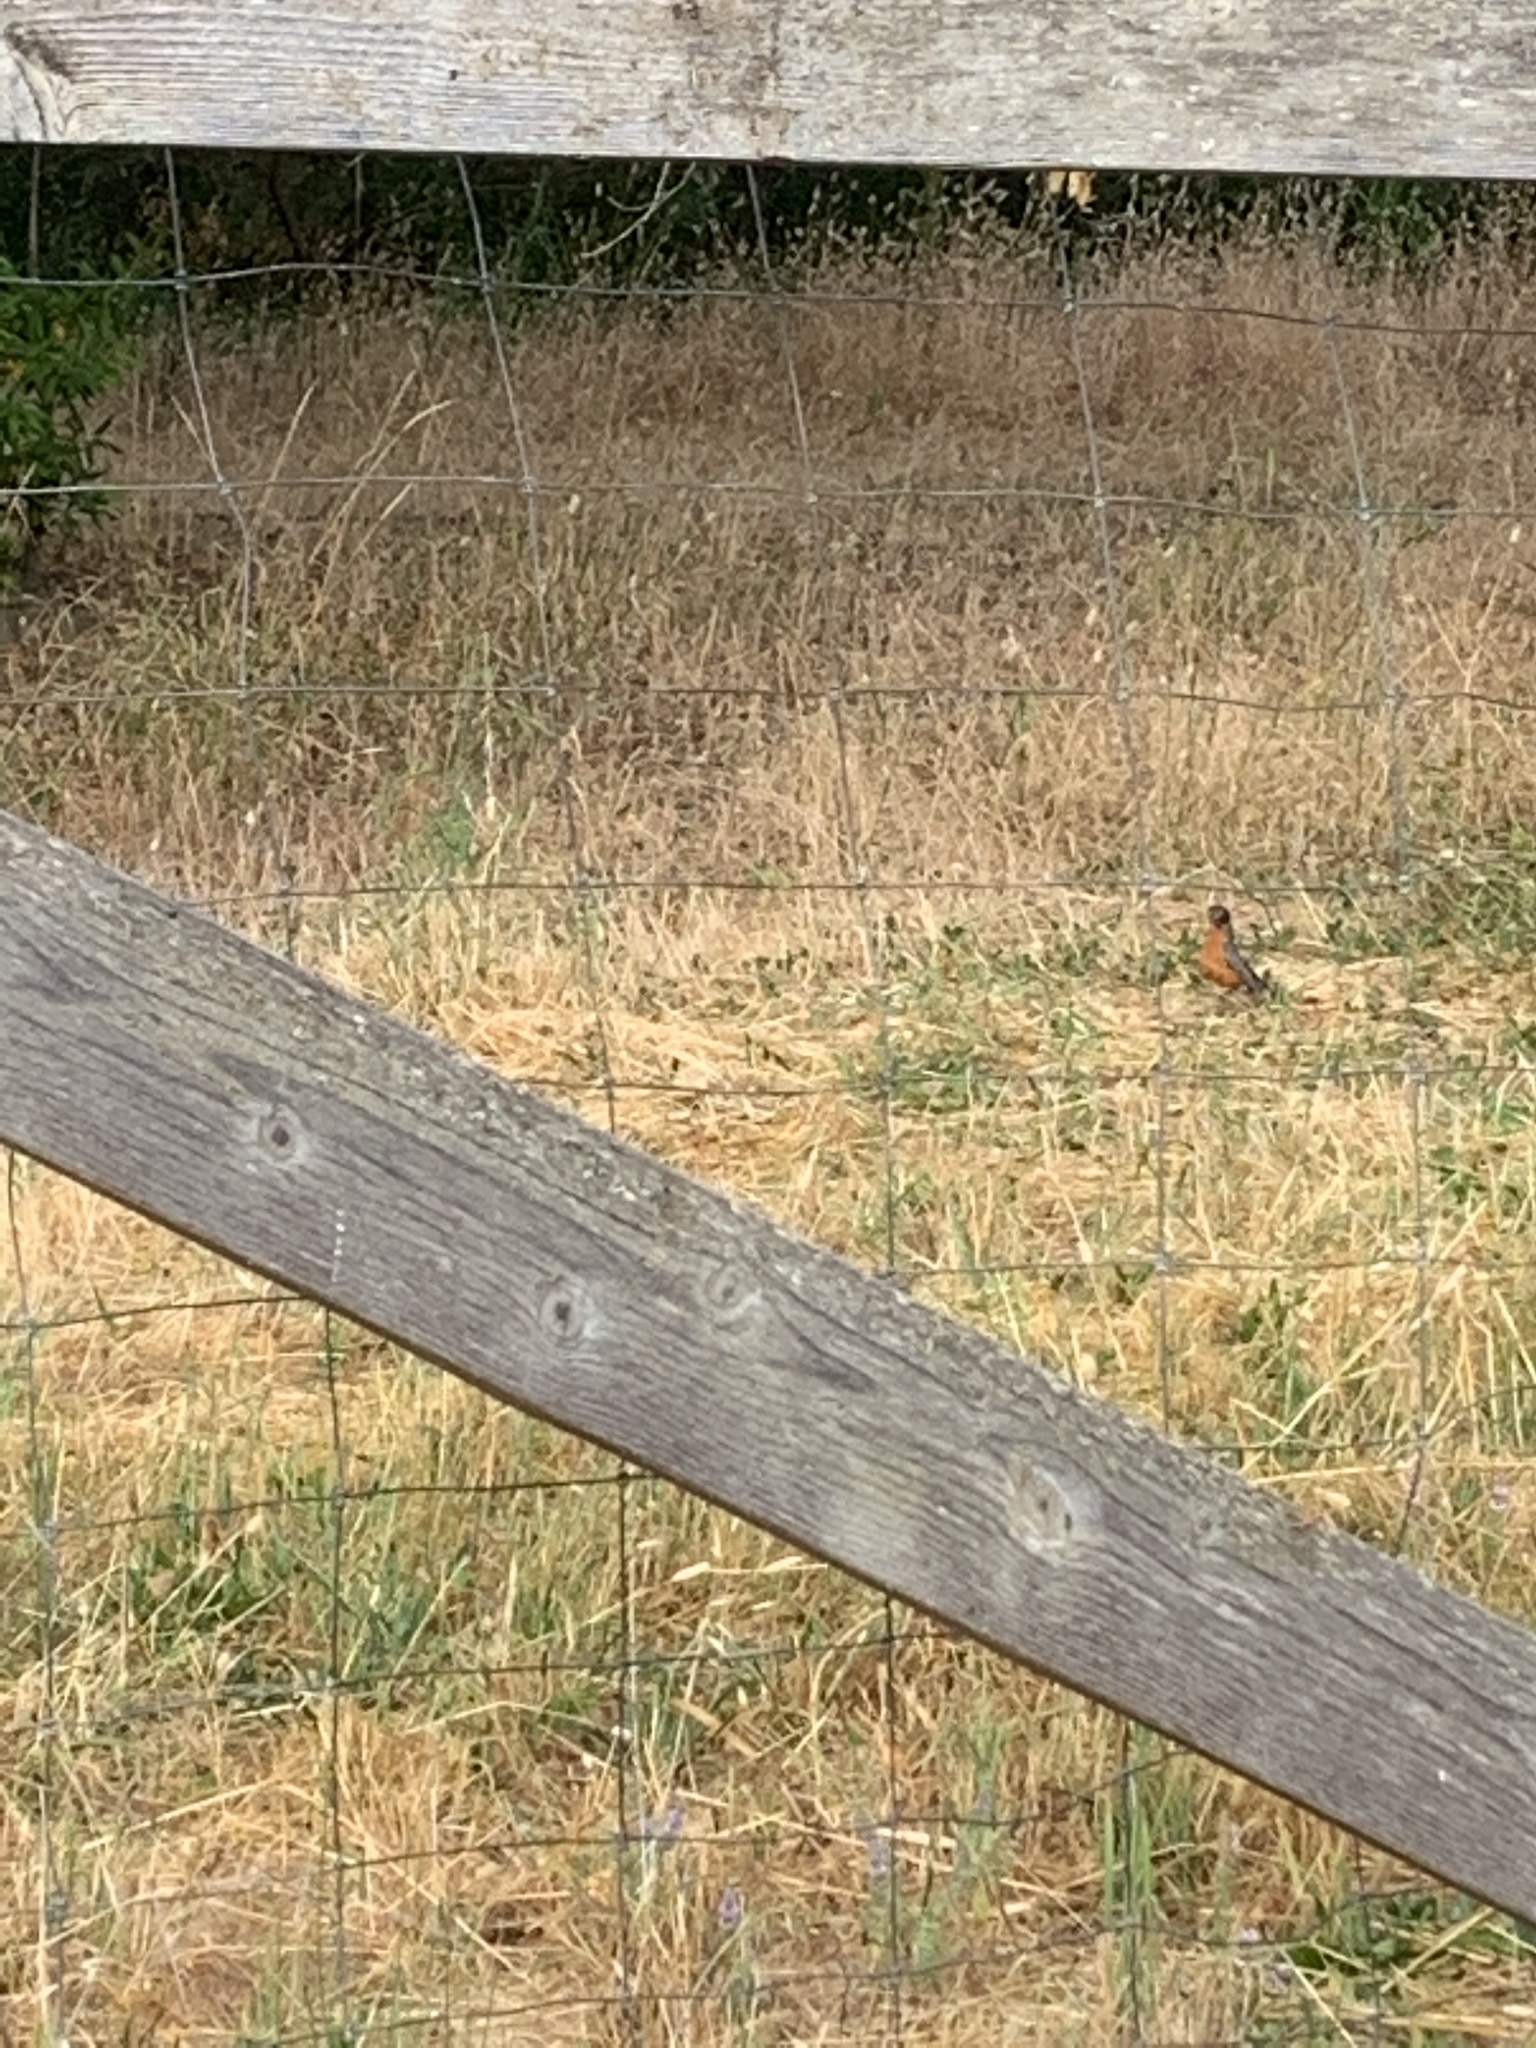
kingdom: Animalia
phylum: Chordata
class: Aves
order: Passeriformes
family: Turdidae
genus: Turdus
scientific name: Turdus migratorius
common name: American robin
